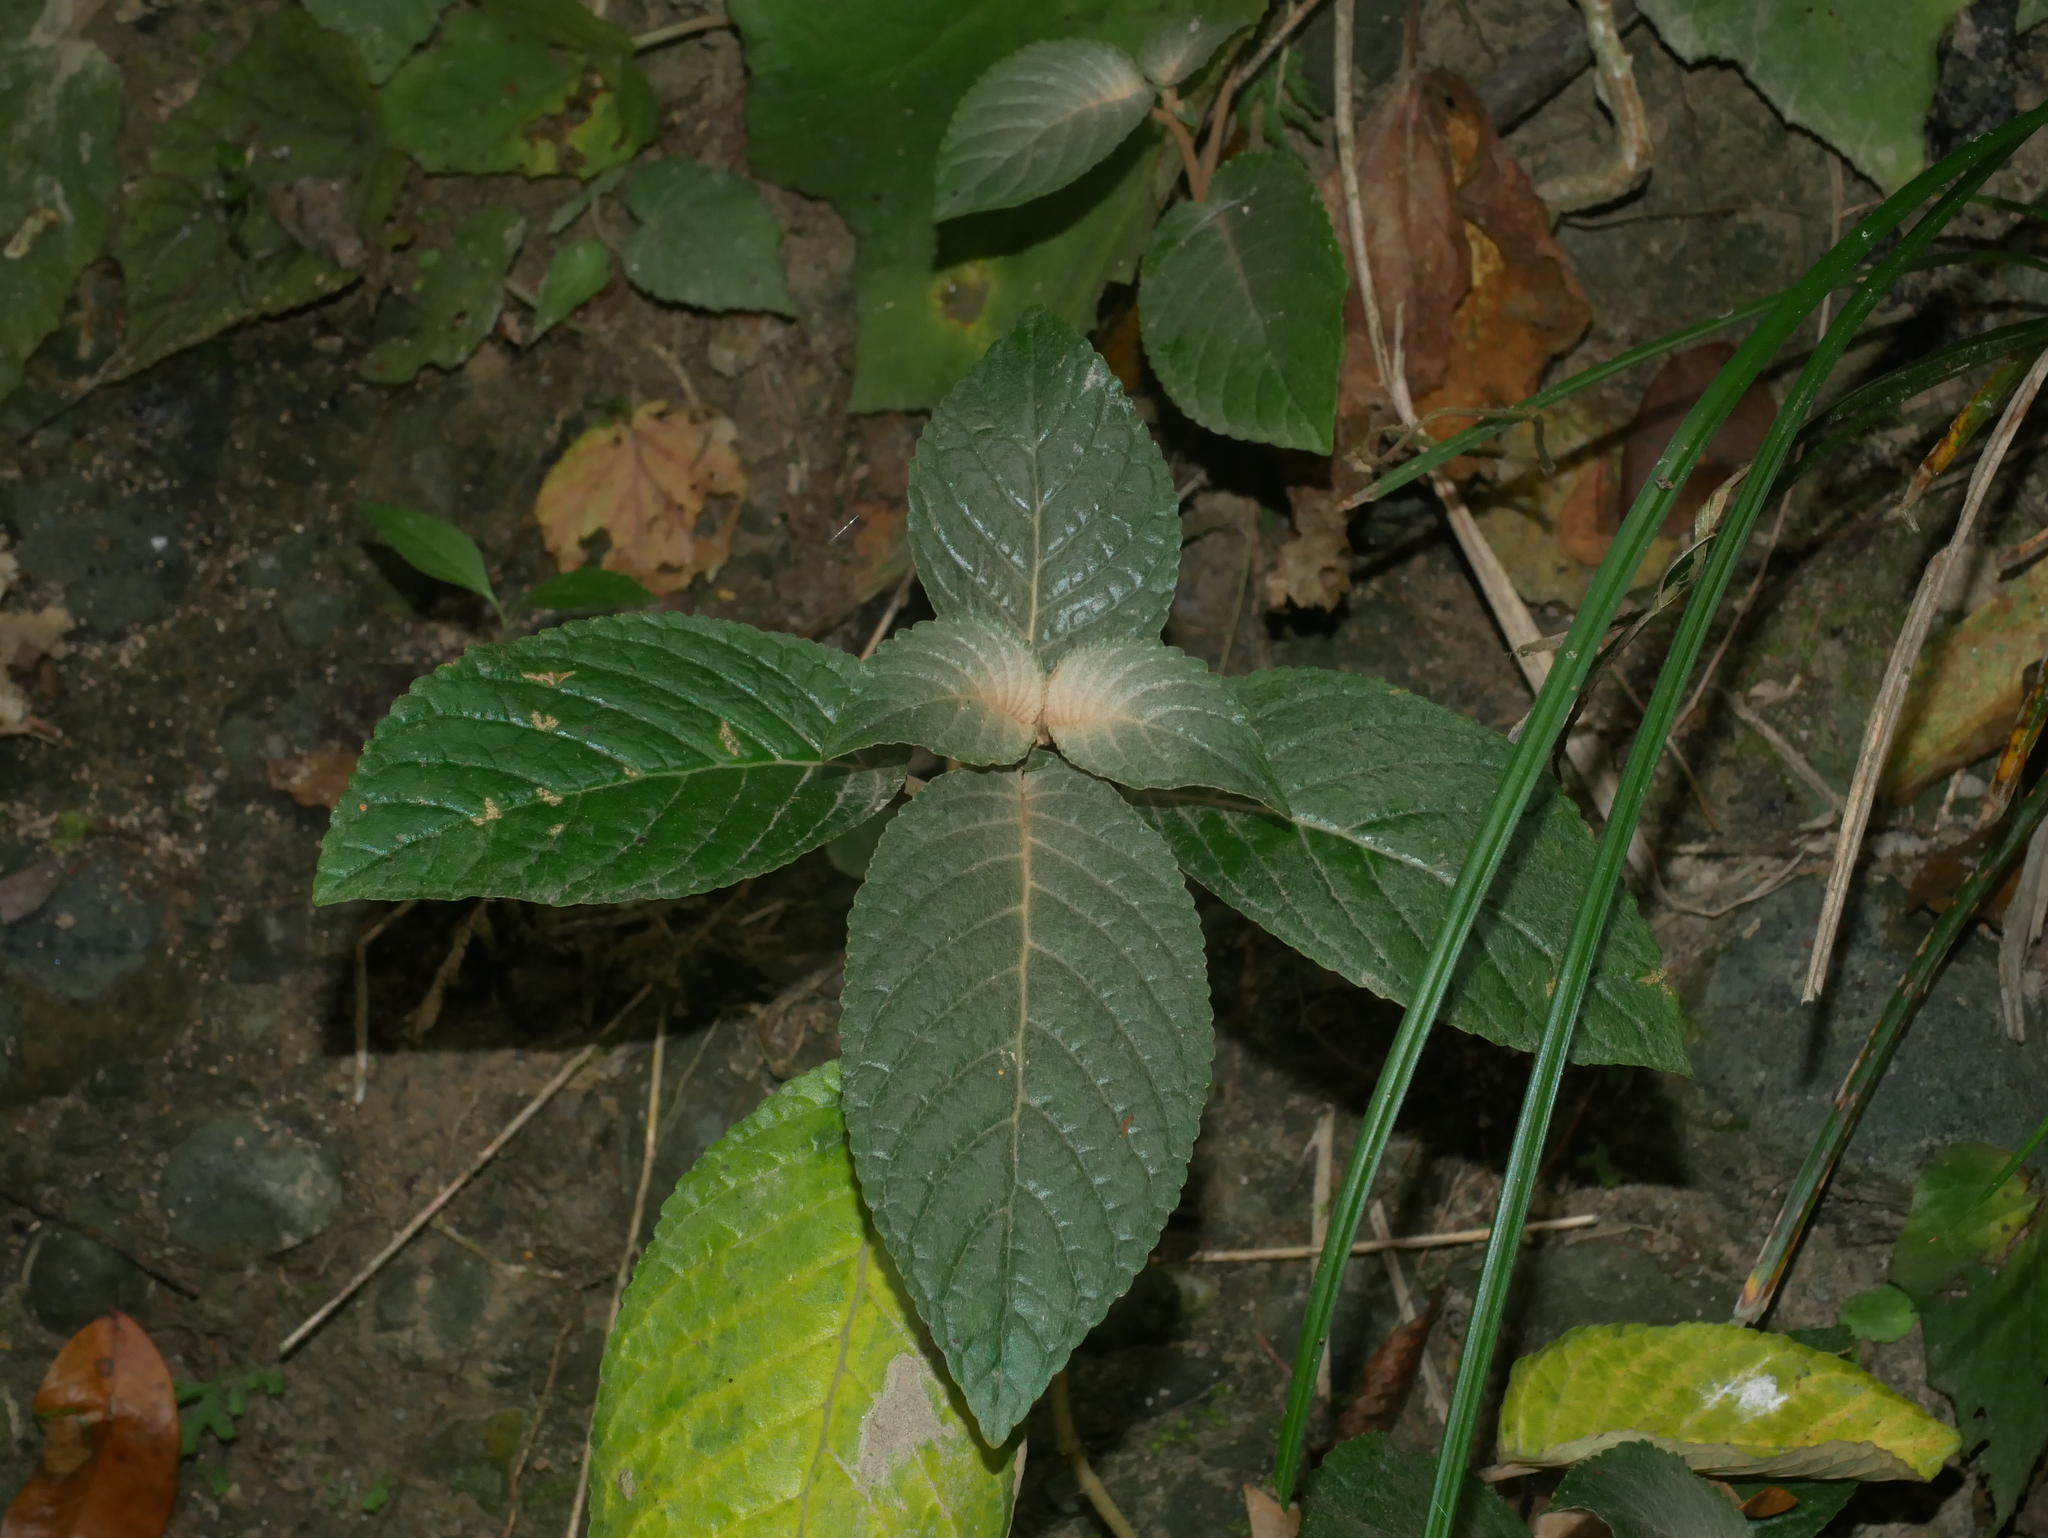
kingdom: Plantae
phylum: Tracheophyta
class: Magnoliopsida
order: Lamiales
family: Gesneriaceae
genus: Paraboea
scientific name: Paraboea swinhoei
